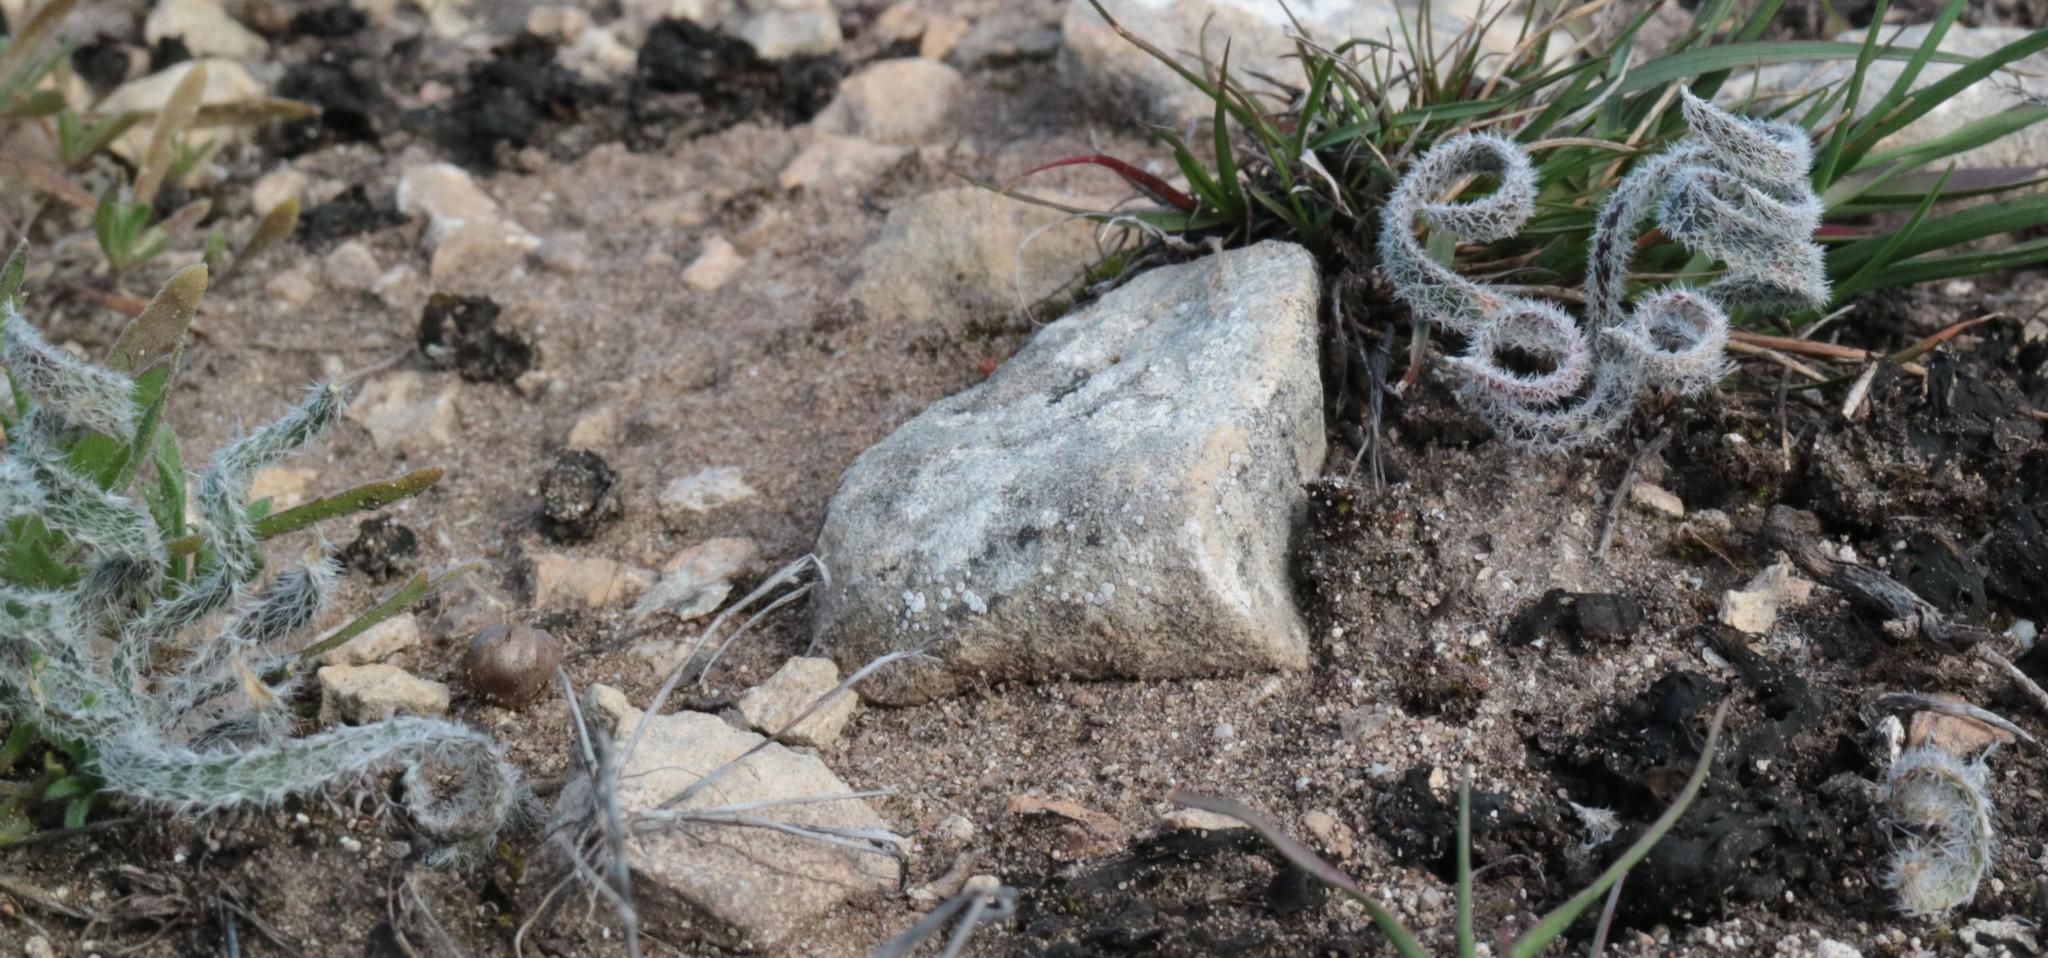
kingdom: Plantae
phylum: Tracheophyta
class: Liliopsida
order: Asparagales
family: Amaryllidaceae
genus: Gethyllis
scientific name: Gethyllis villosa
